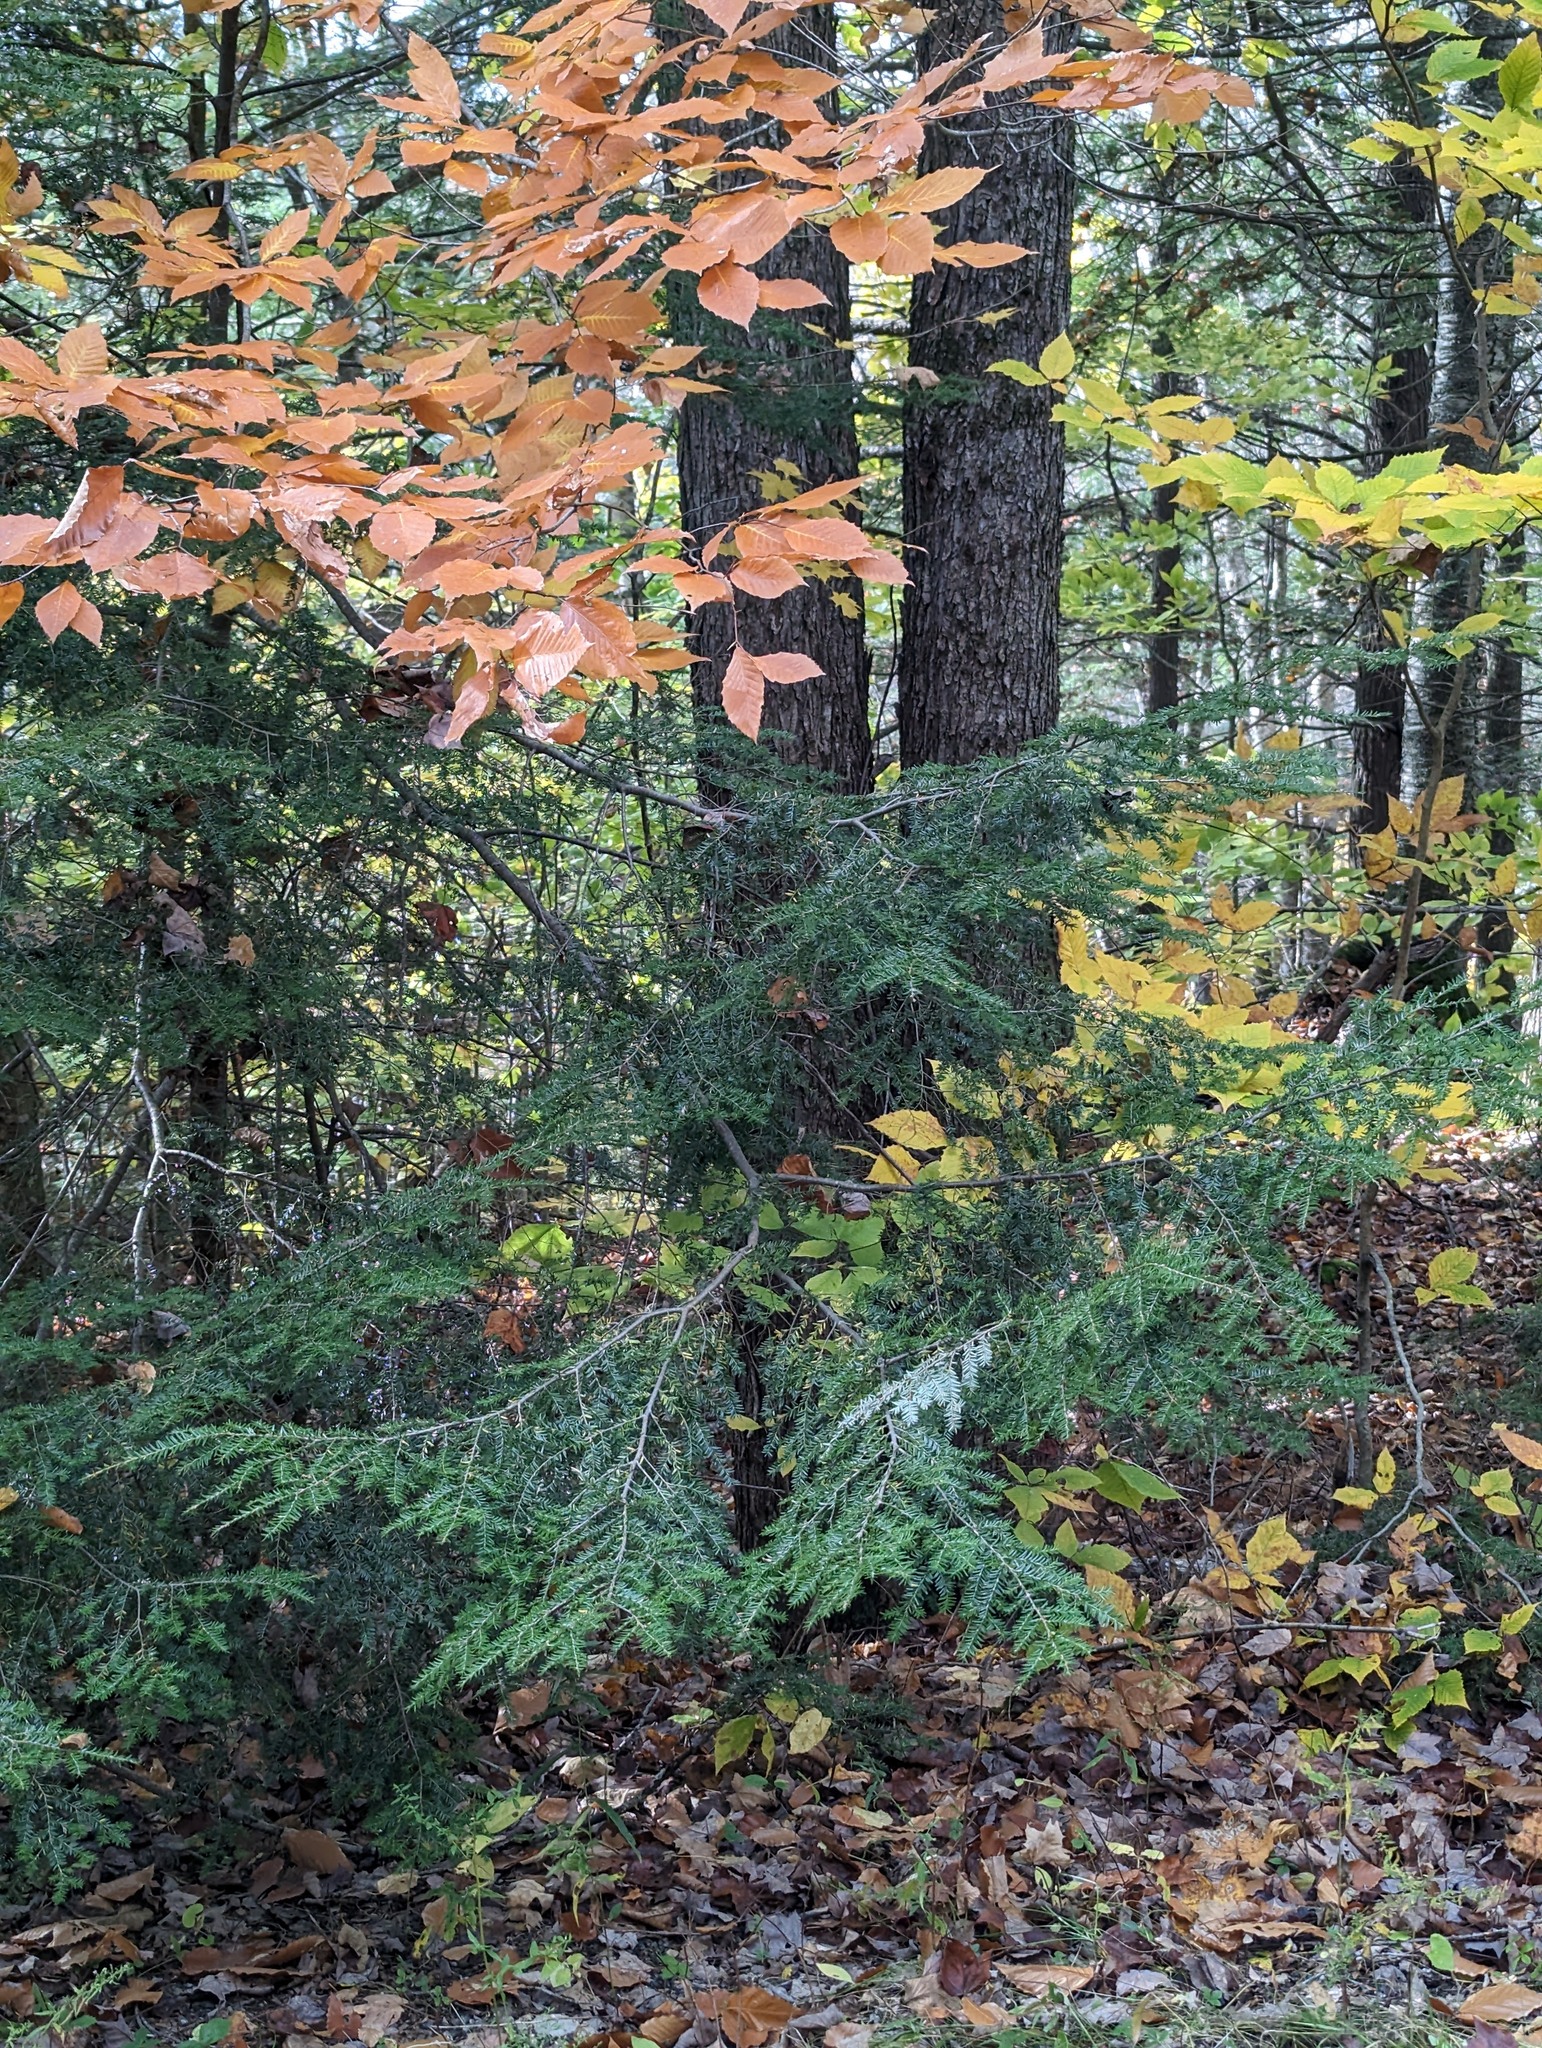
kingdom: Plantae
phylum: Tracheophyta
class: Pinopsida
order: Pinales
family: Pinaceae
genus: Tsuga
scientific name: Tsuga canadensis
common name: Eastern hemlock
